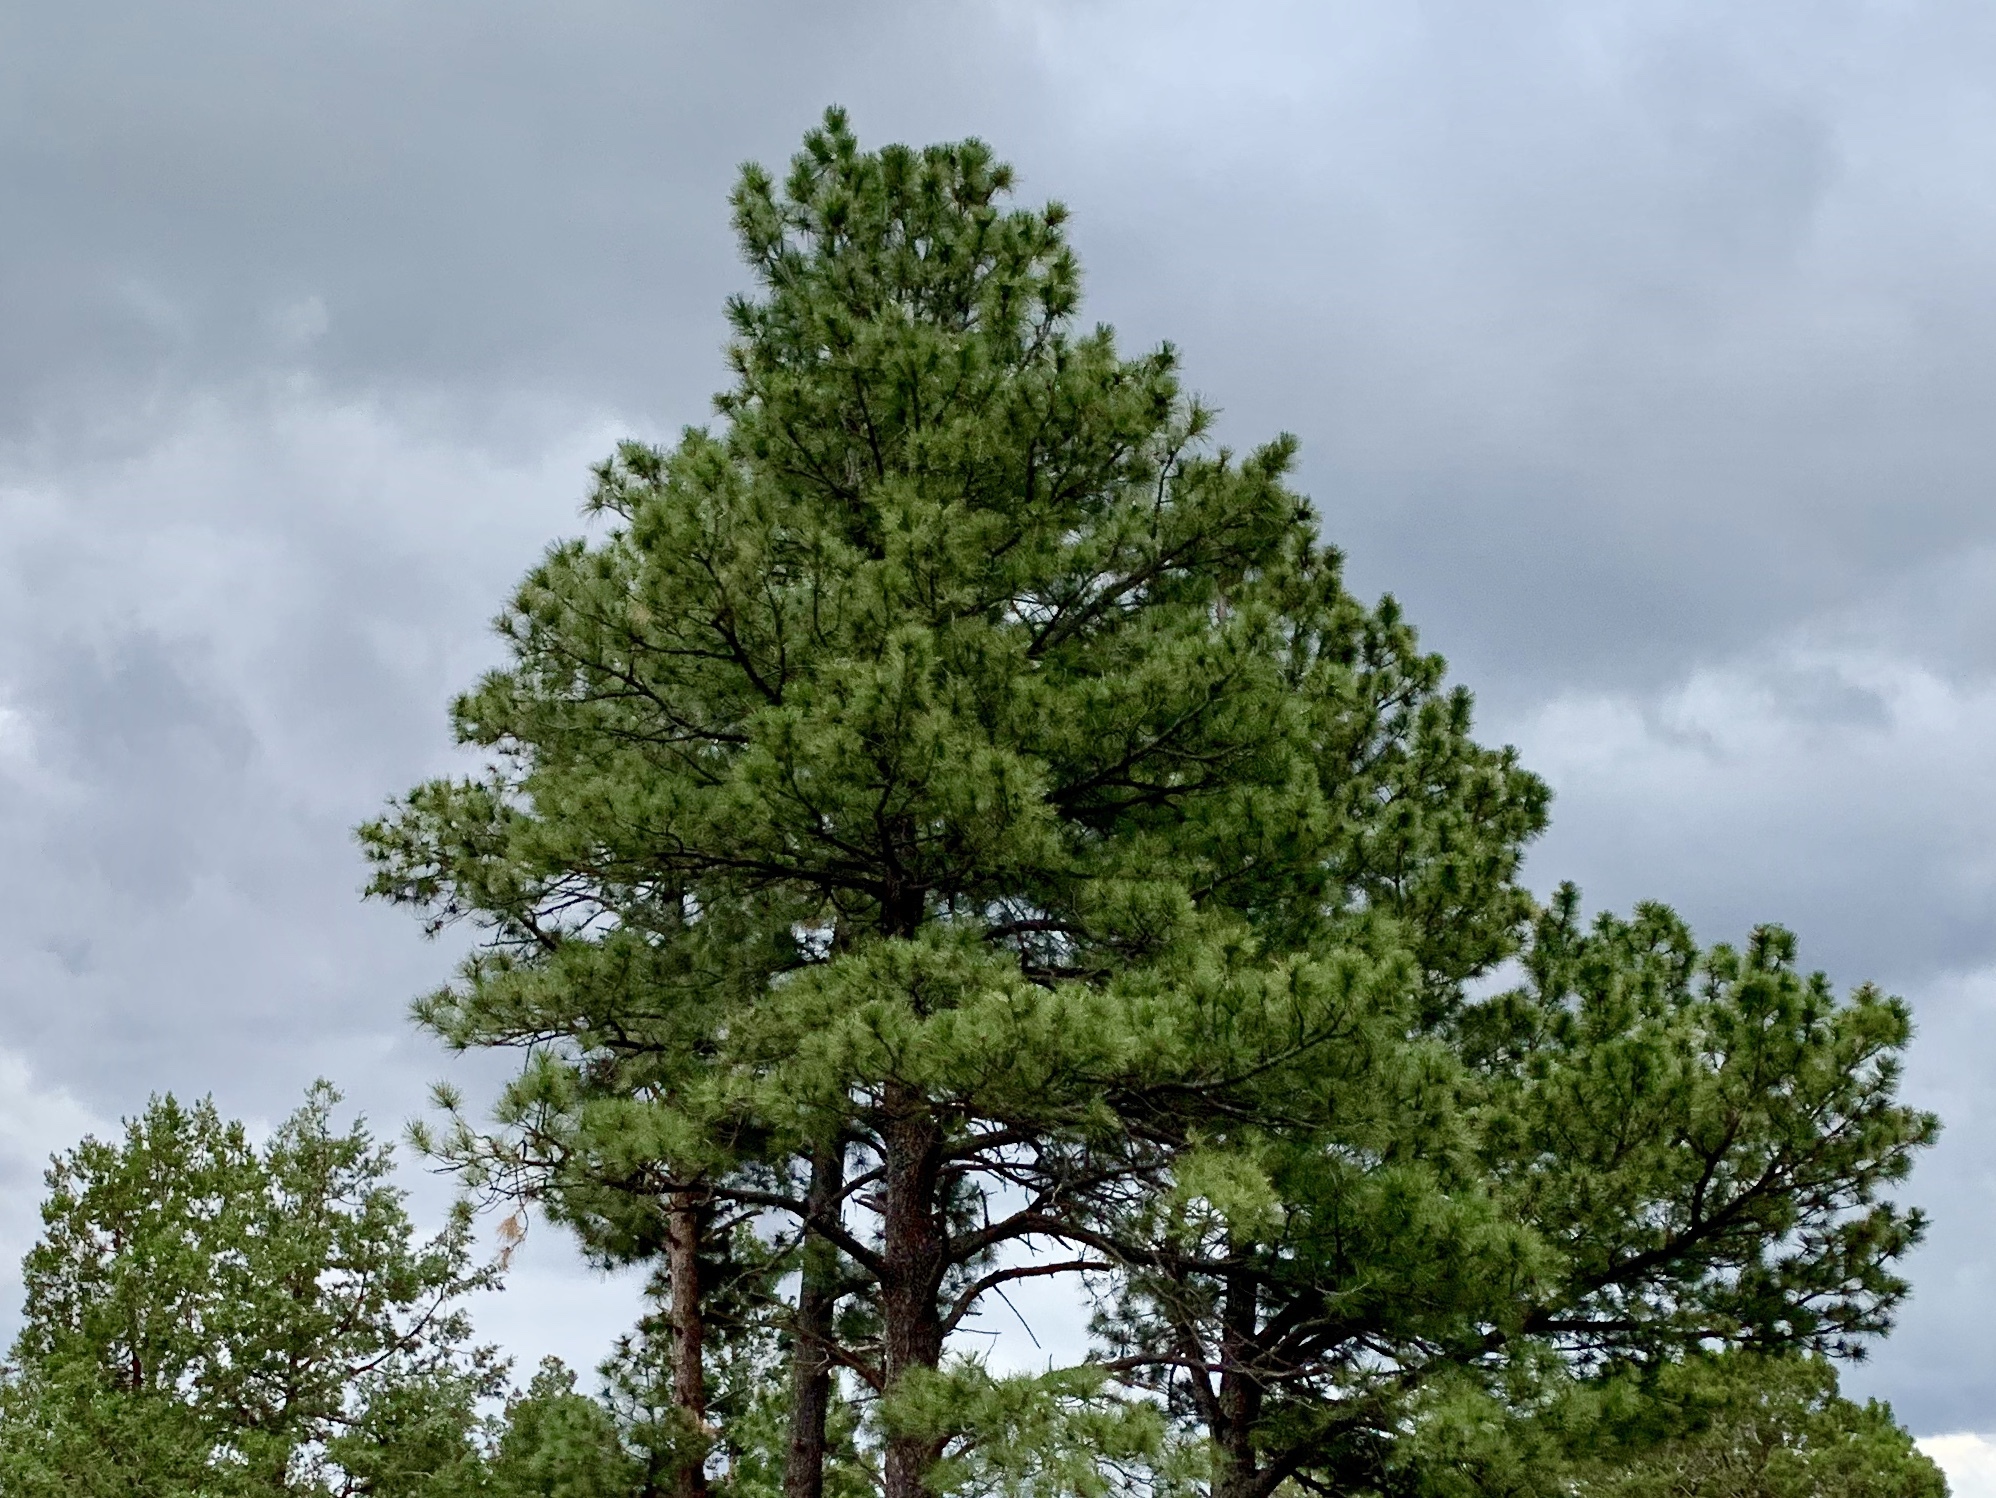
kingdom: Plantae
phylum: Tracheophyta
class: Pinopsida
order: Pinales
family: Pinaceae
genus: Pinus
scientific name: Pinus ponderosa
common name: Western yellow-pine
